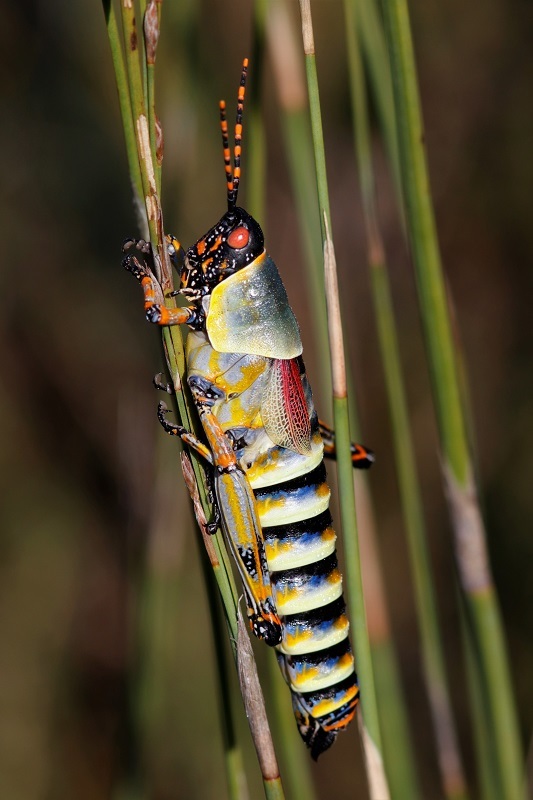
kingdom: Animalia
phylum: Arthropoda
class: Insecta
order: Orthoptera
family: Pyrgomorphidae
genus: Zonocerus
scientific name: Zonocerus elegans
